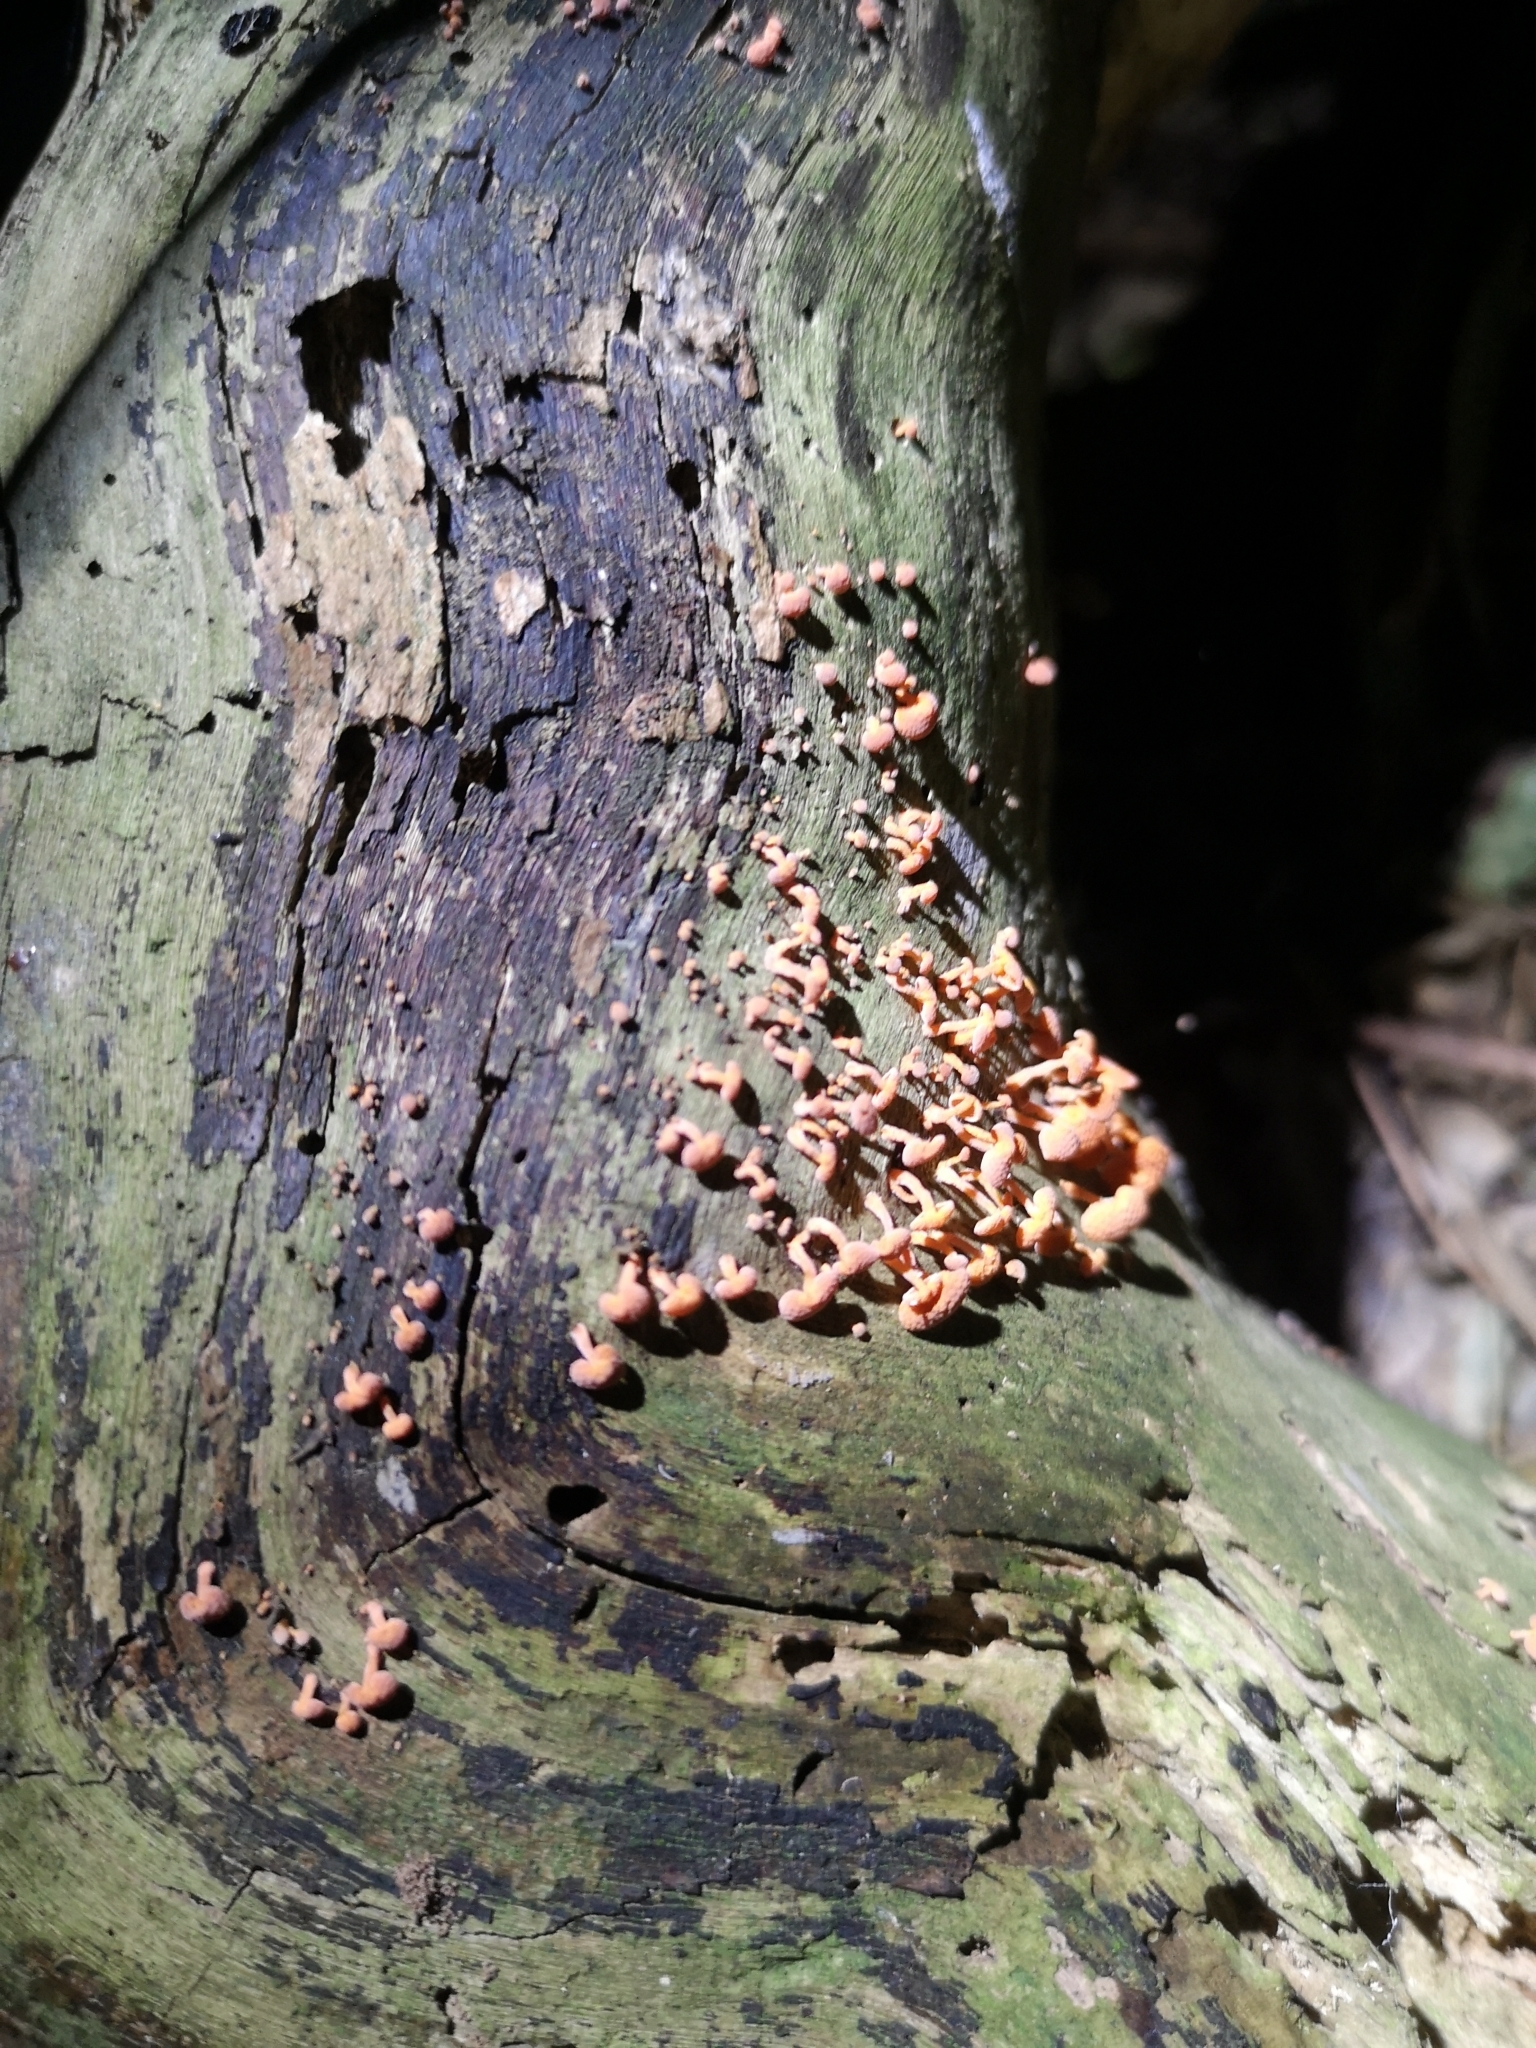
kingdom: Fungi
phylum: Basidiomycota
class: Agaricomycetes
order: Agaricales
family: Mycenaceae
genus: Favolaschia
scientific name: Favolaschia claudopus
